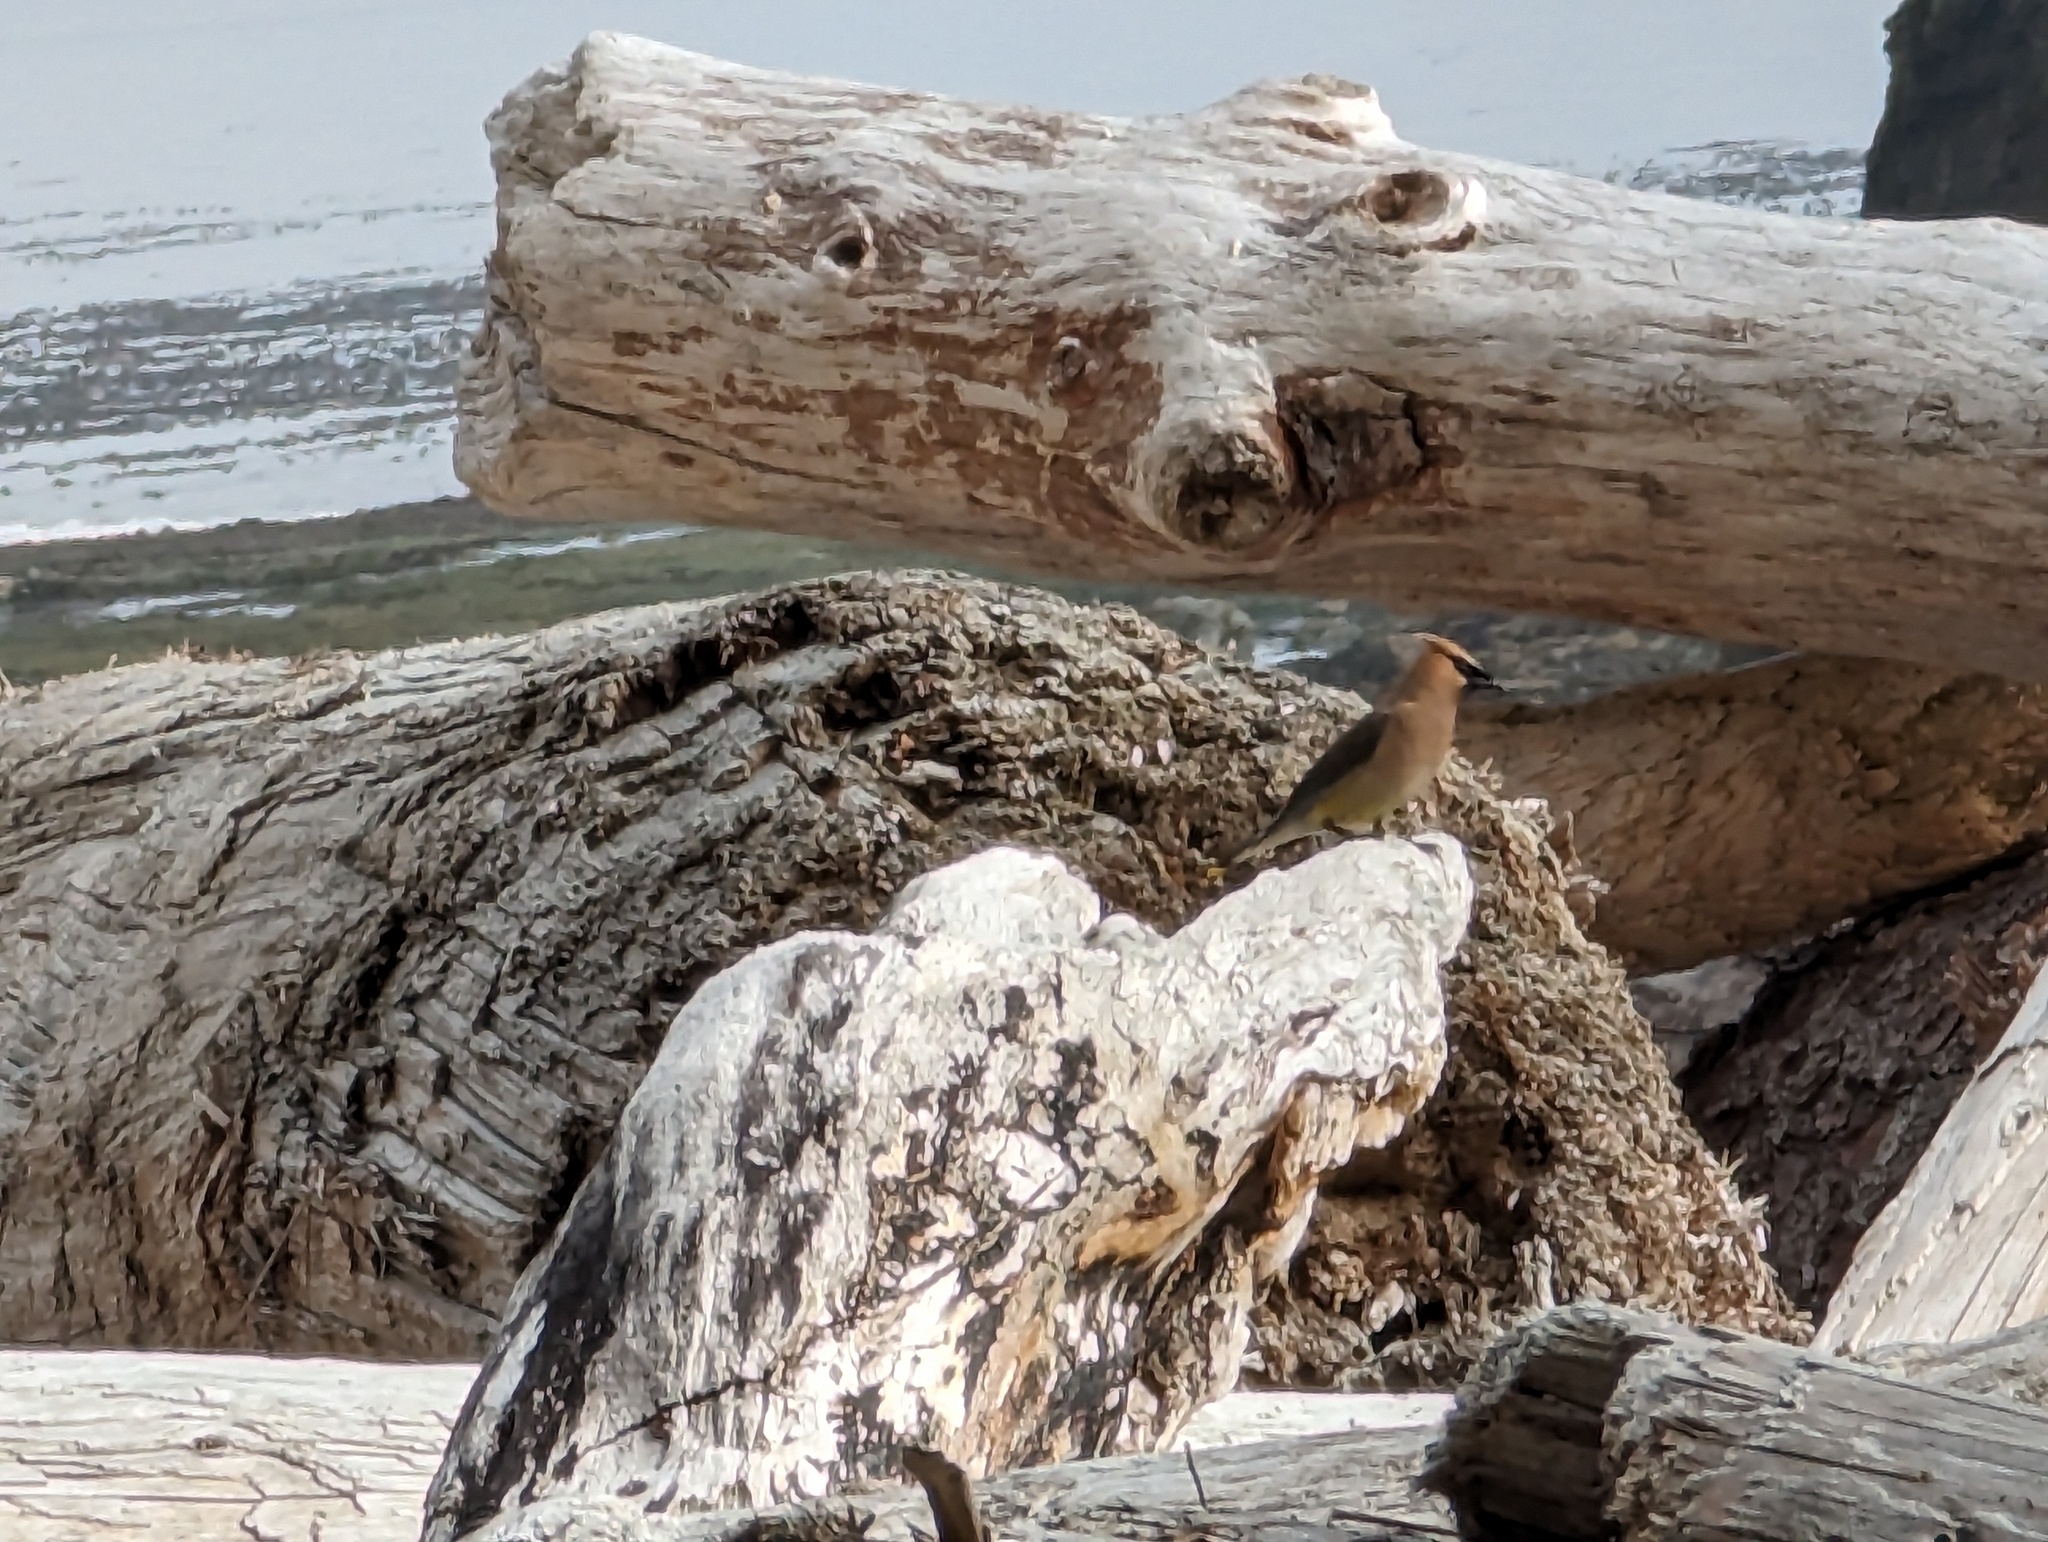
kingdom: Animalia
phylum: Chordata
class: Aves
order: Passeriformes
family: Bombycillidae
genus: Bombycilla
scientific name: Bombycilla cedrorum
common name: Cedar waxwing
